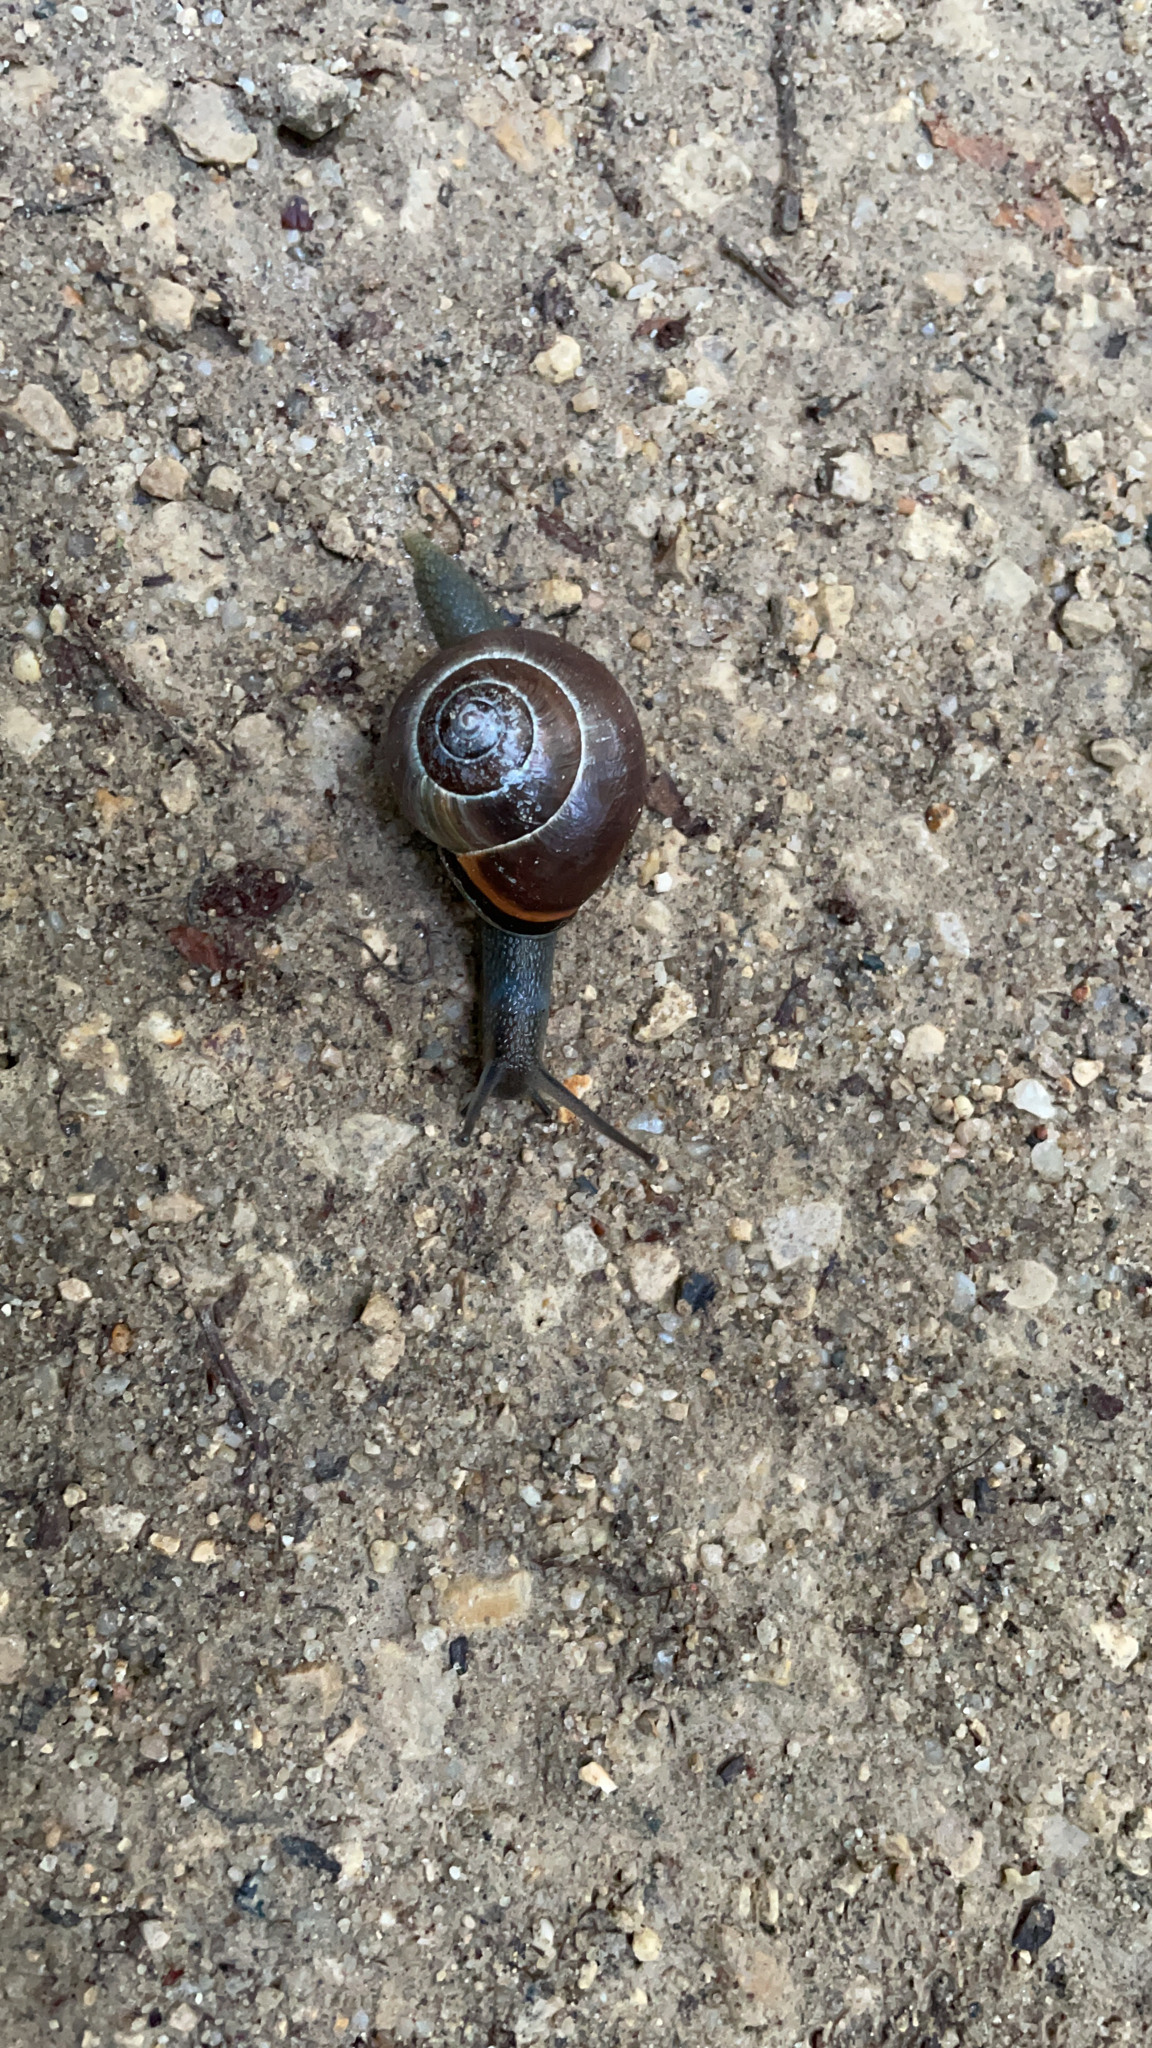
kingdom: Animalia
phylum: Mollusca
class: Gastropoda
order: Stylommatophora
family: Helicidae
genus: Cepaea
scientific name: Cepaea nemoralis
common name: Grovesnail
